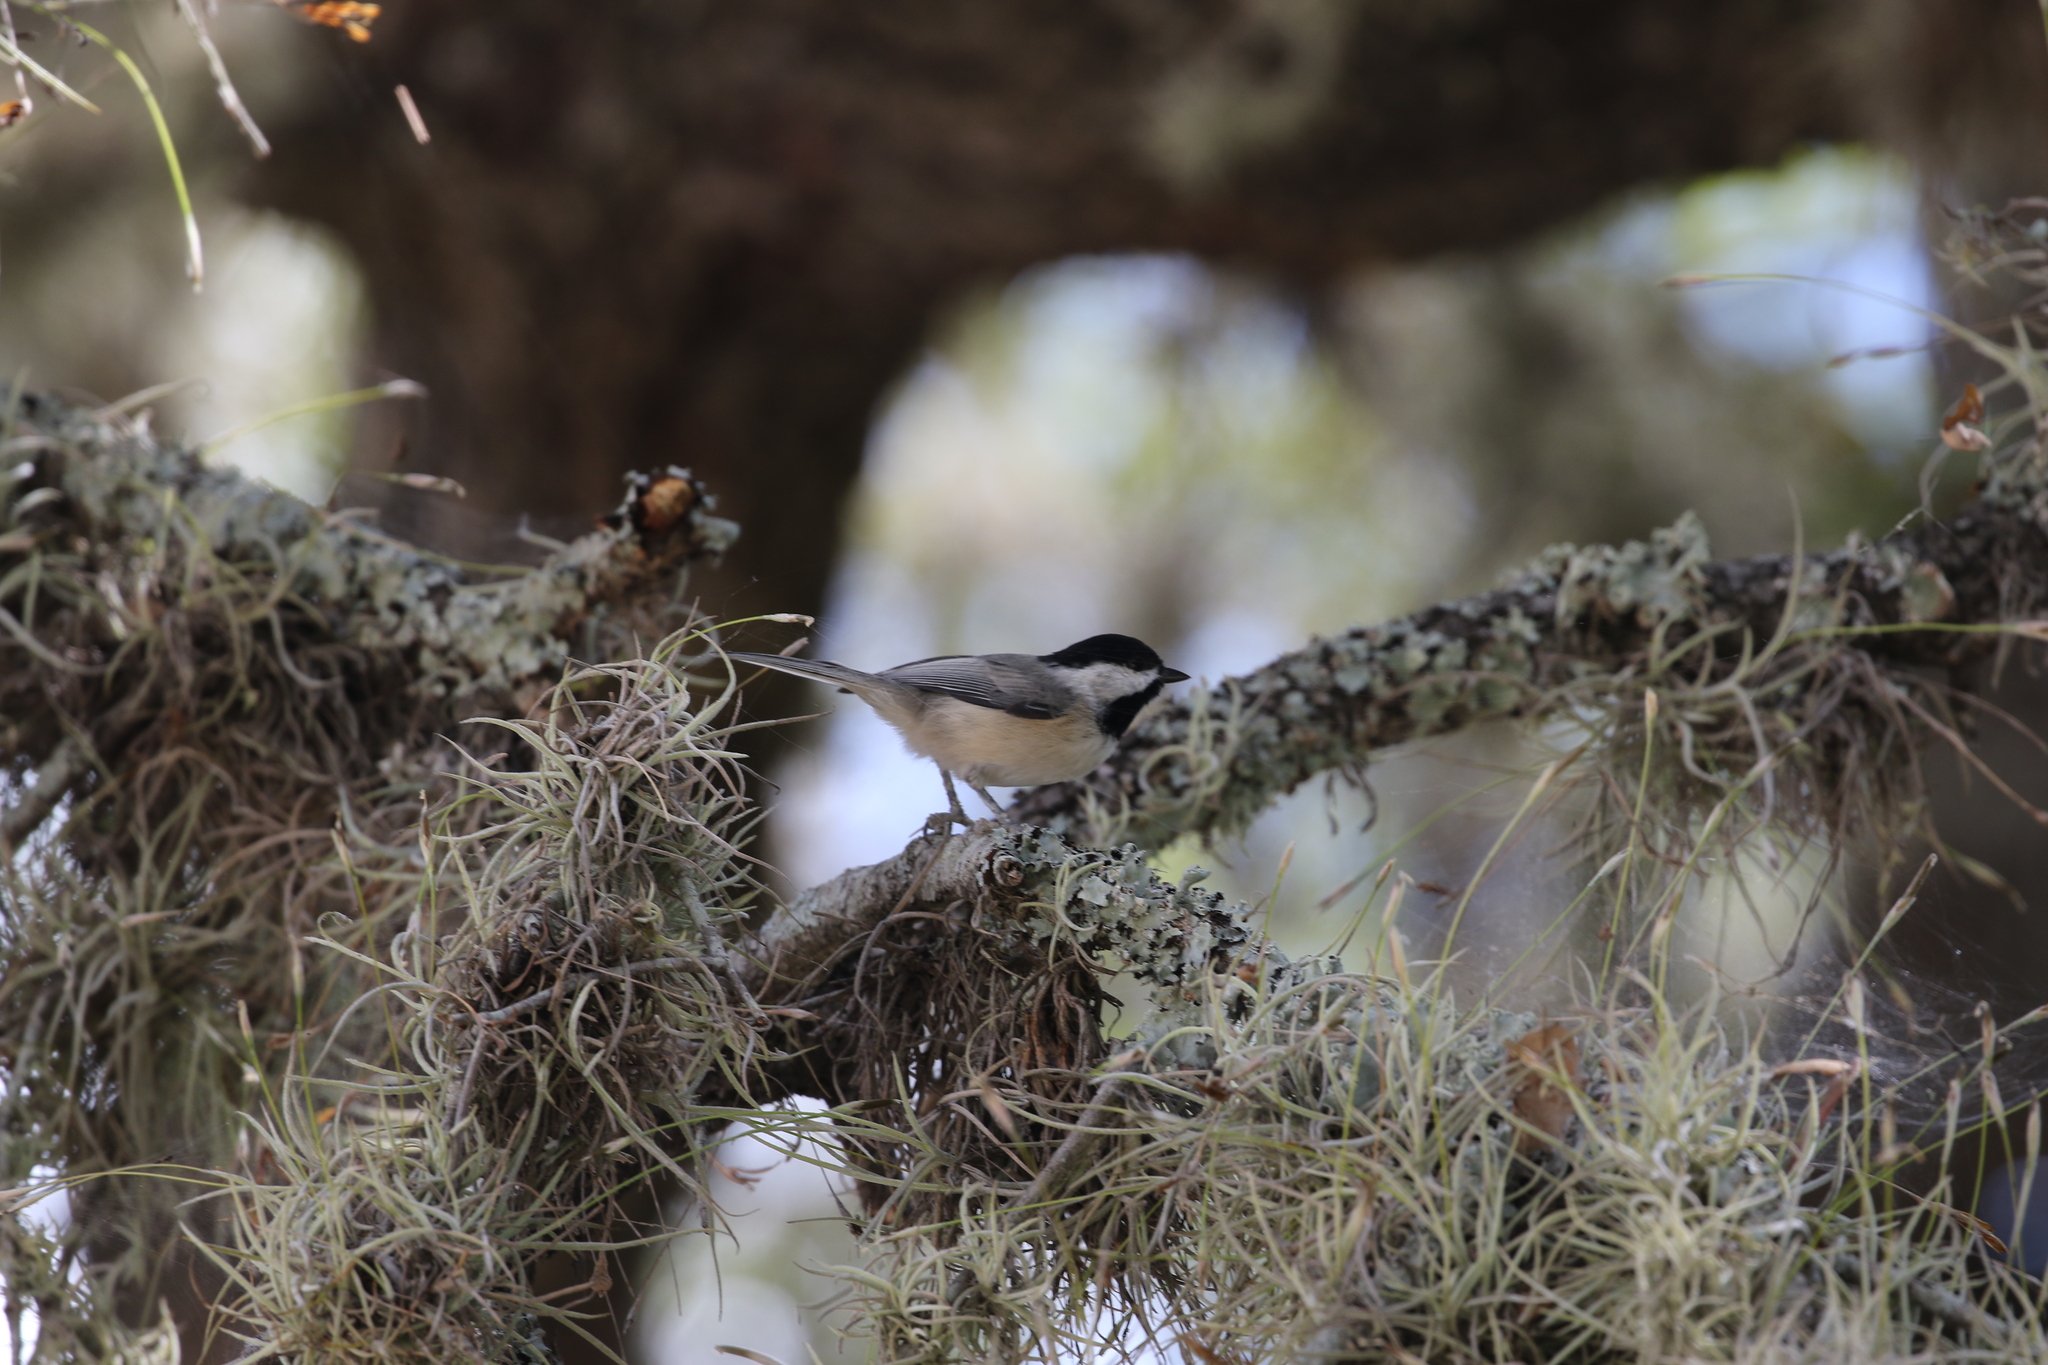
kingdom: Animalia
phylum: Chordata
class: Aves
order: Passeriformes
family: Paridae
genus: Poecile
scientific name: Poecile carolinensis
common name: Carolina chickadee
